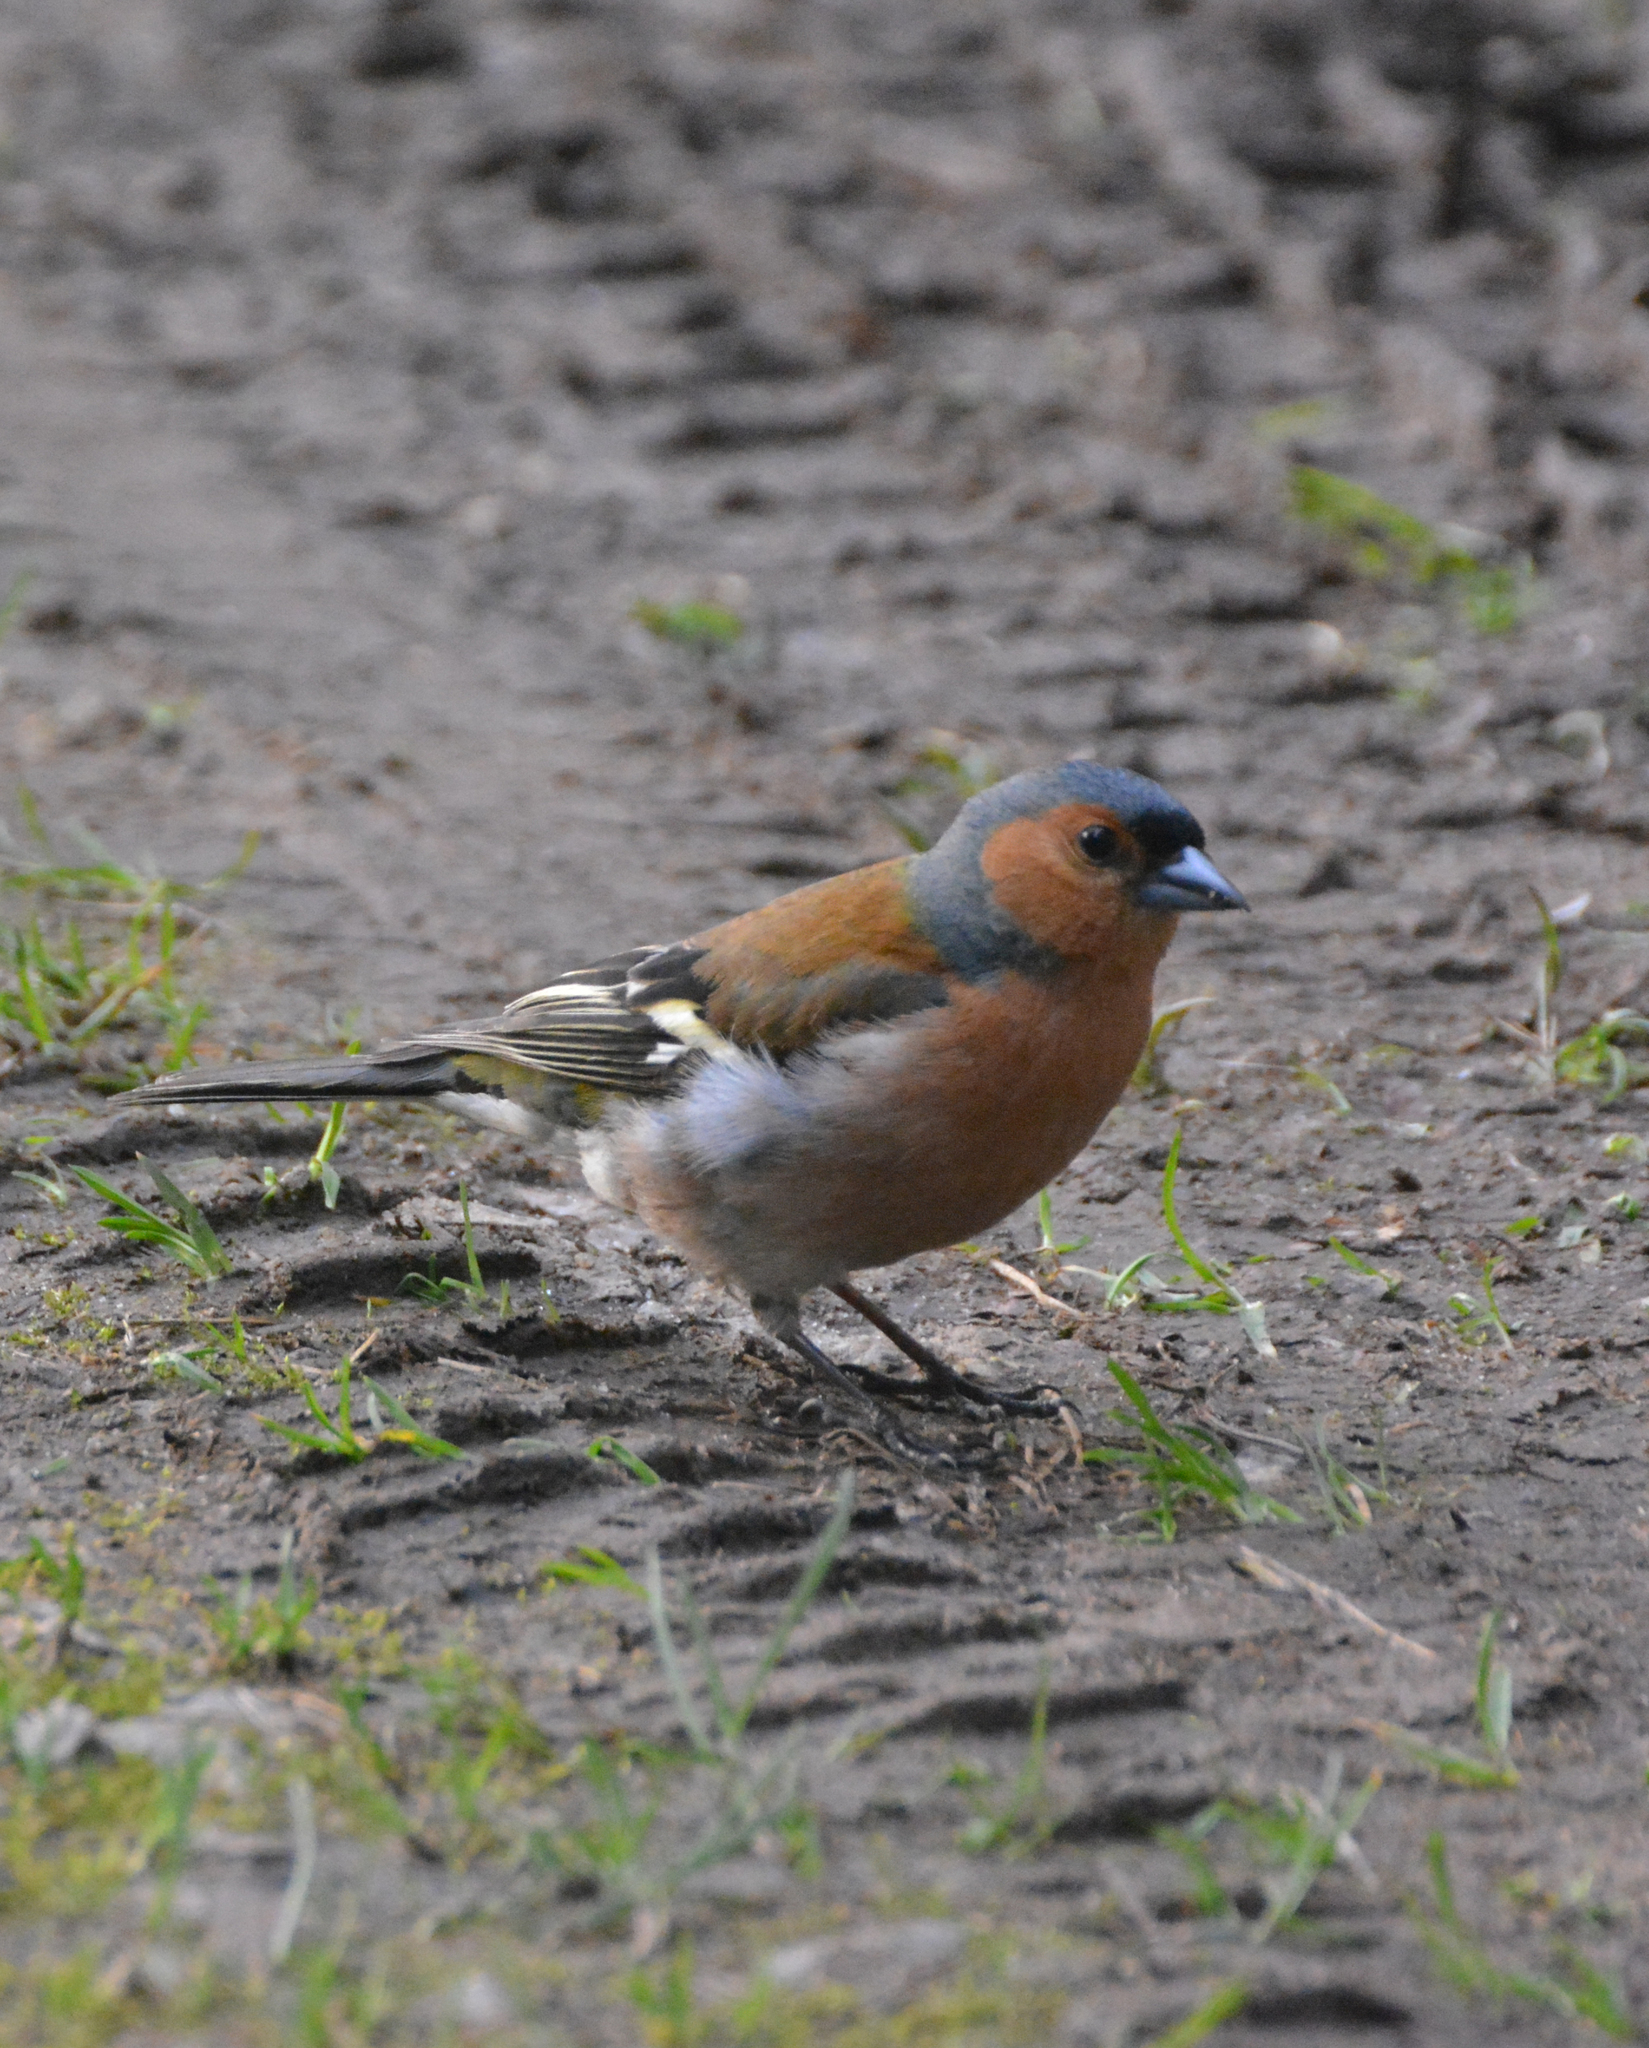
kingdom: Animalia
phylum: Chordata
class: Aves
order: Passeriformes
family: Fringillidae
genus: Fringilla
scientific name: Fringilla coelebs
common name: Common chaffinch
